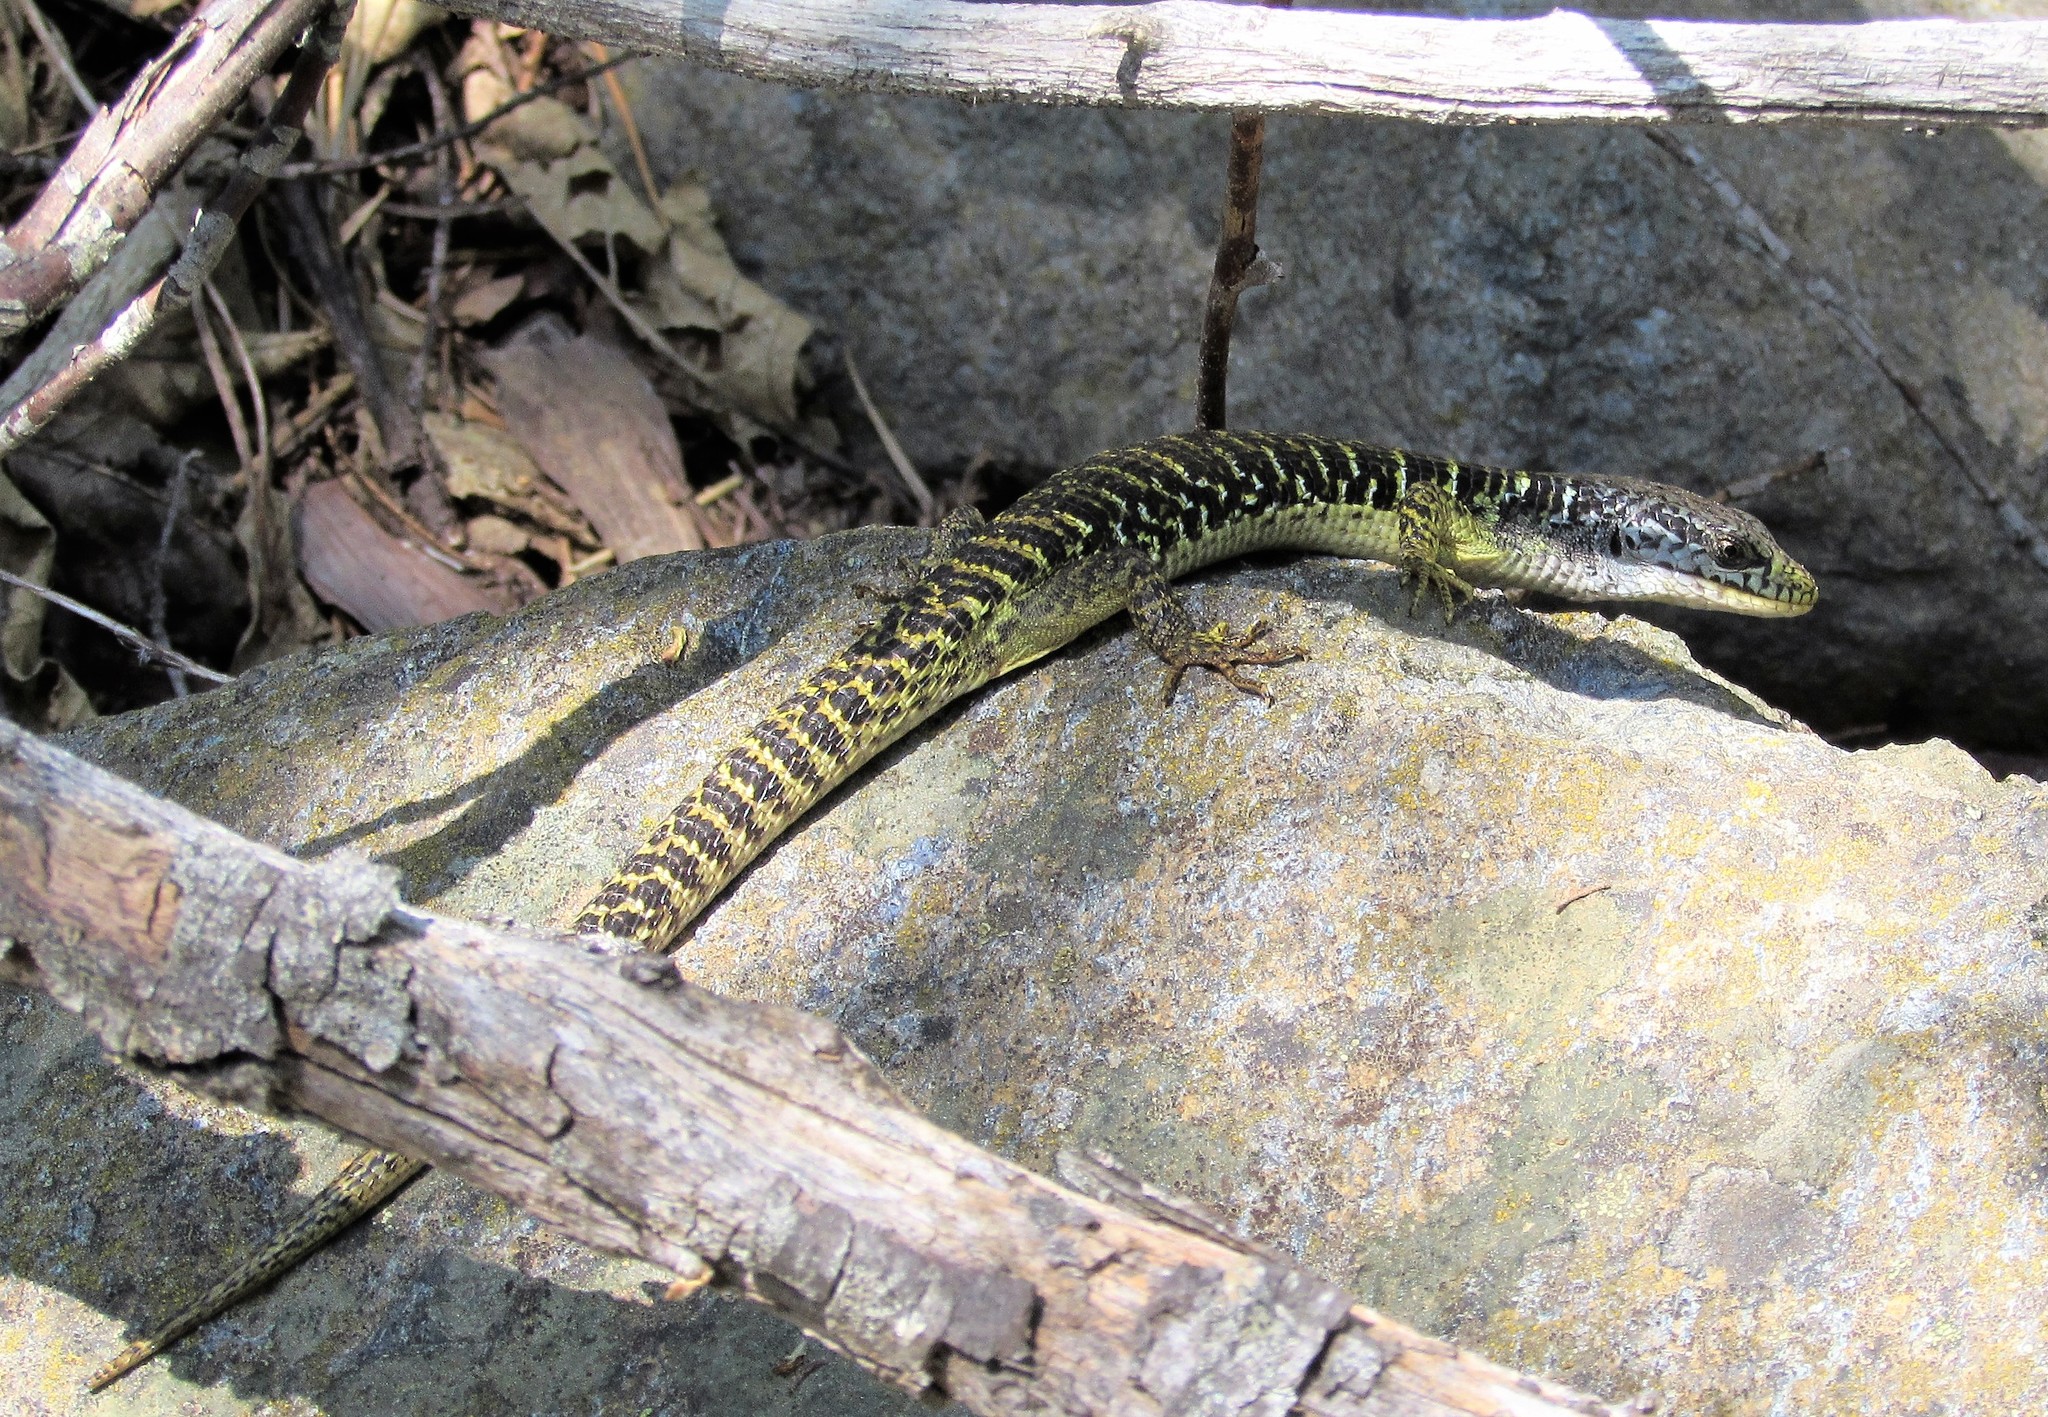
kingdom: Animalia
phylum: Chordata
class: Squamata
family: Anguidae
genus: Elgaria
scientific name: Elgaria coerulea
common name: Northern alligator lizard
